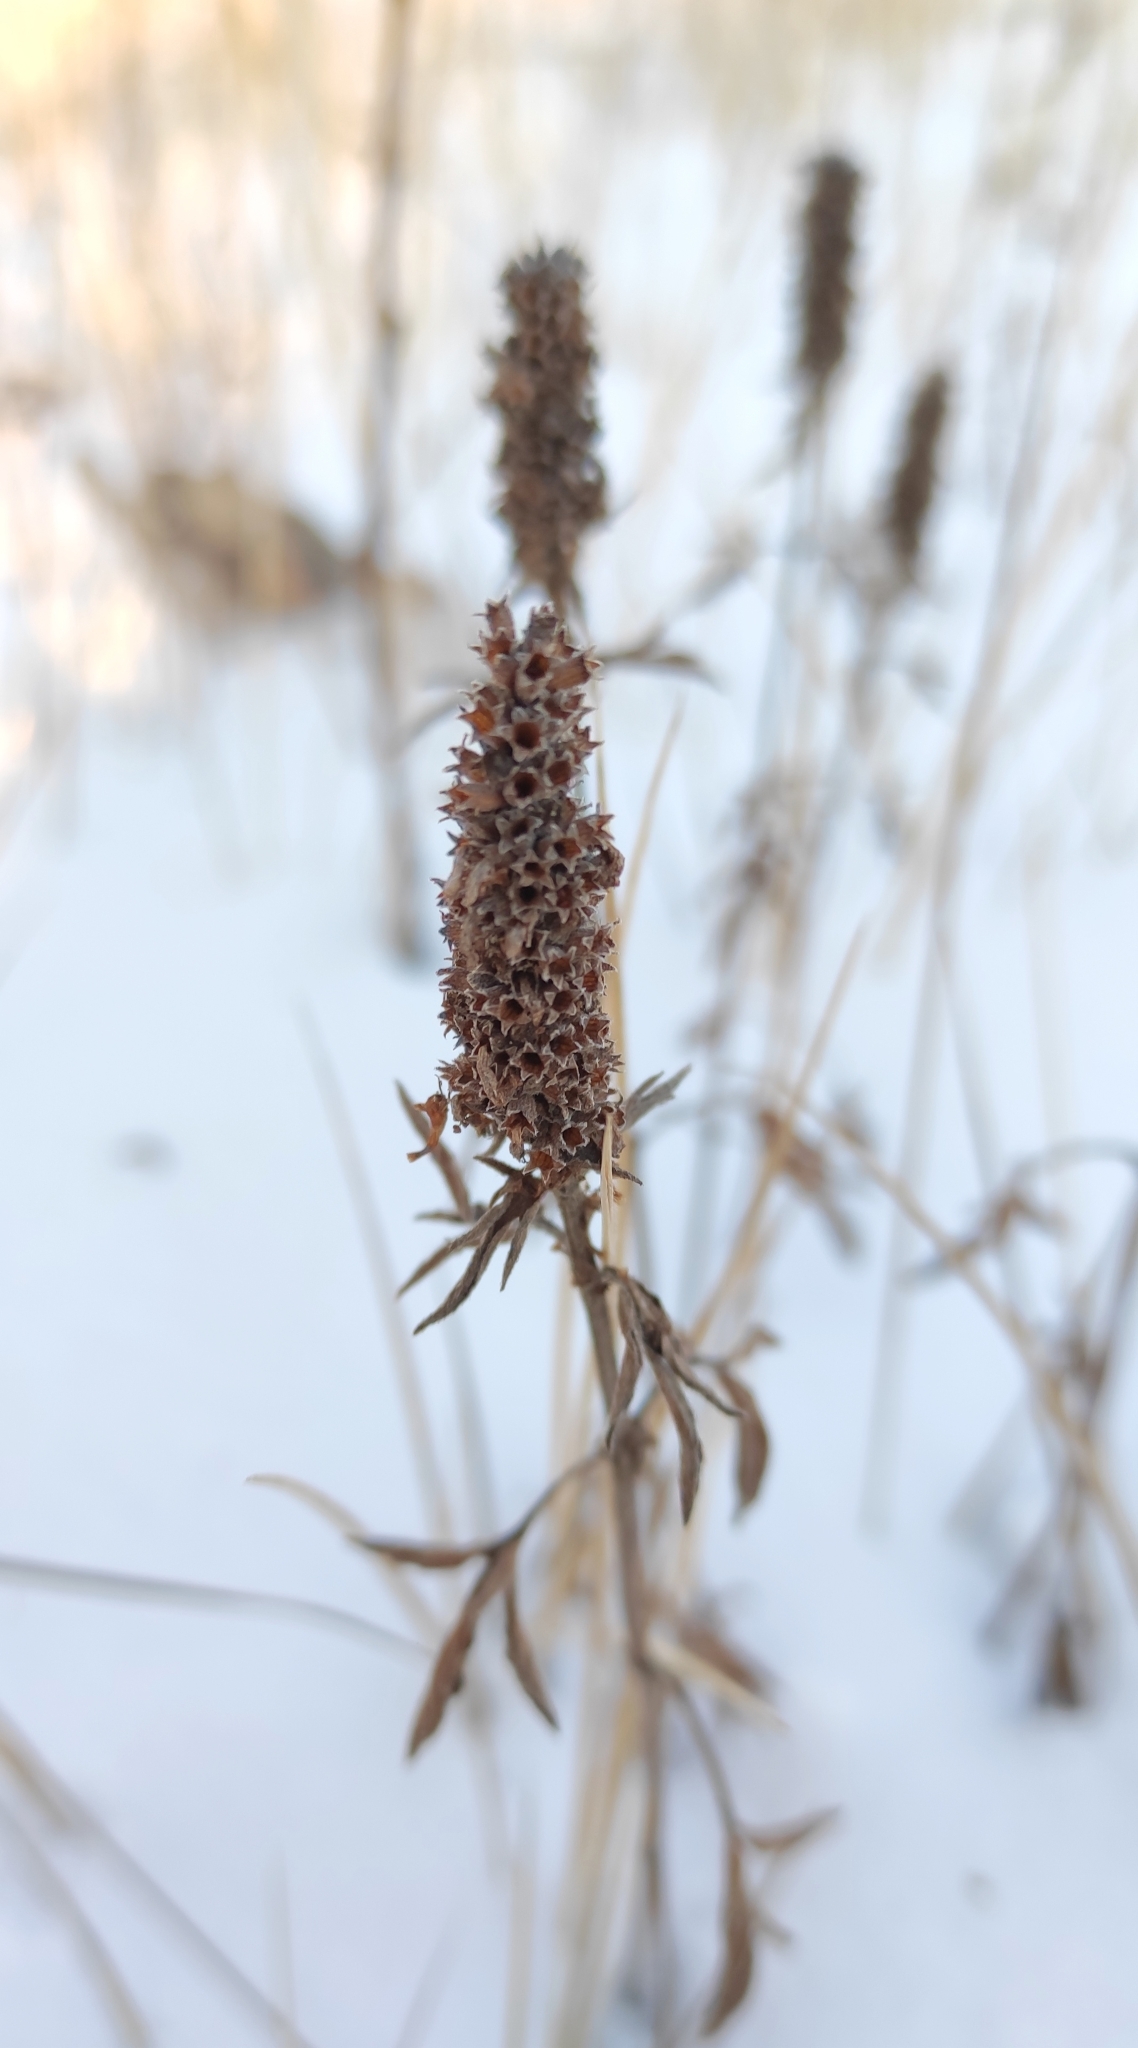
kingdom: Plantae
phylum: Tracheophyta
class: Magnoliopsida
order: Lamiales
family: Lamiaceae
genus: Nepeta
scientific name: Nepeta multifida
